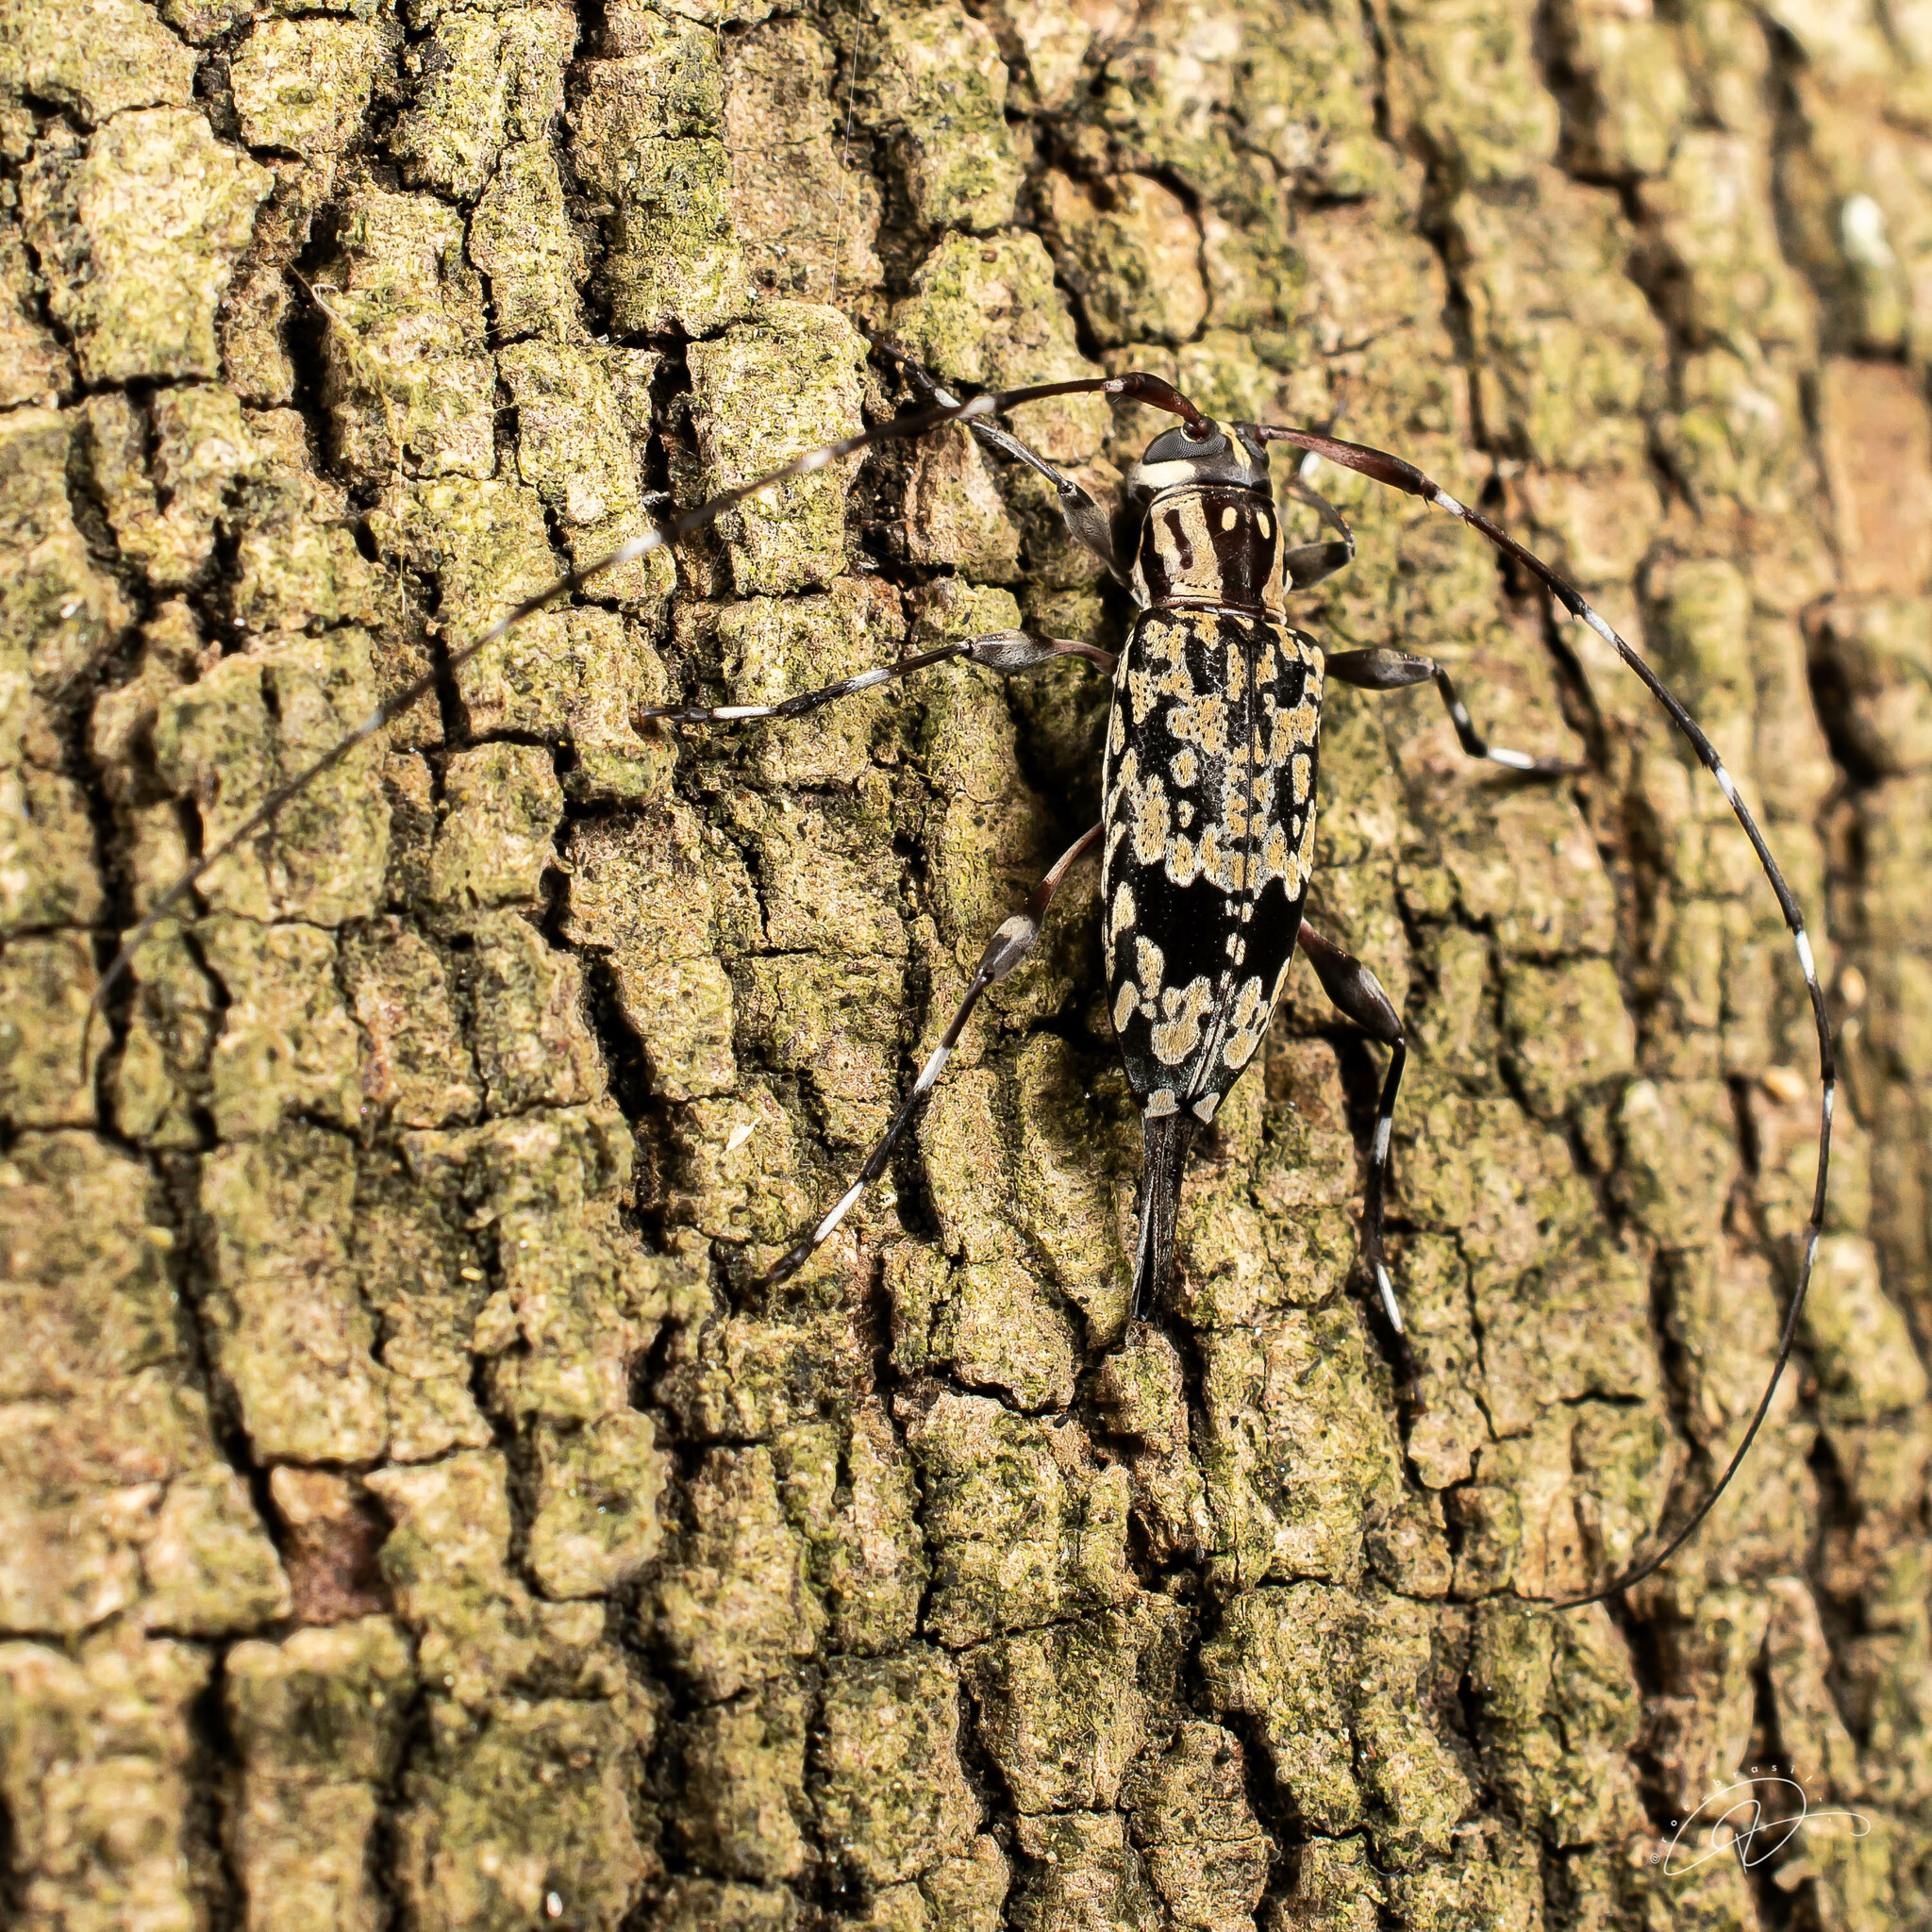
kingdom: Animalia
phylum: Arthropoda
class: Insecta
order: Coleoptera
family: Cerambycidae
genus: Eutrypanus
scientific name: Eutrypanus tessellatus
